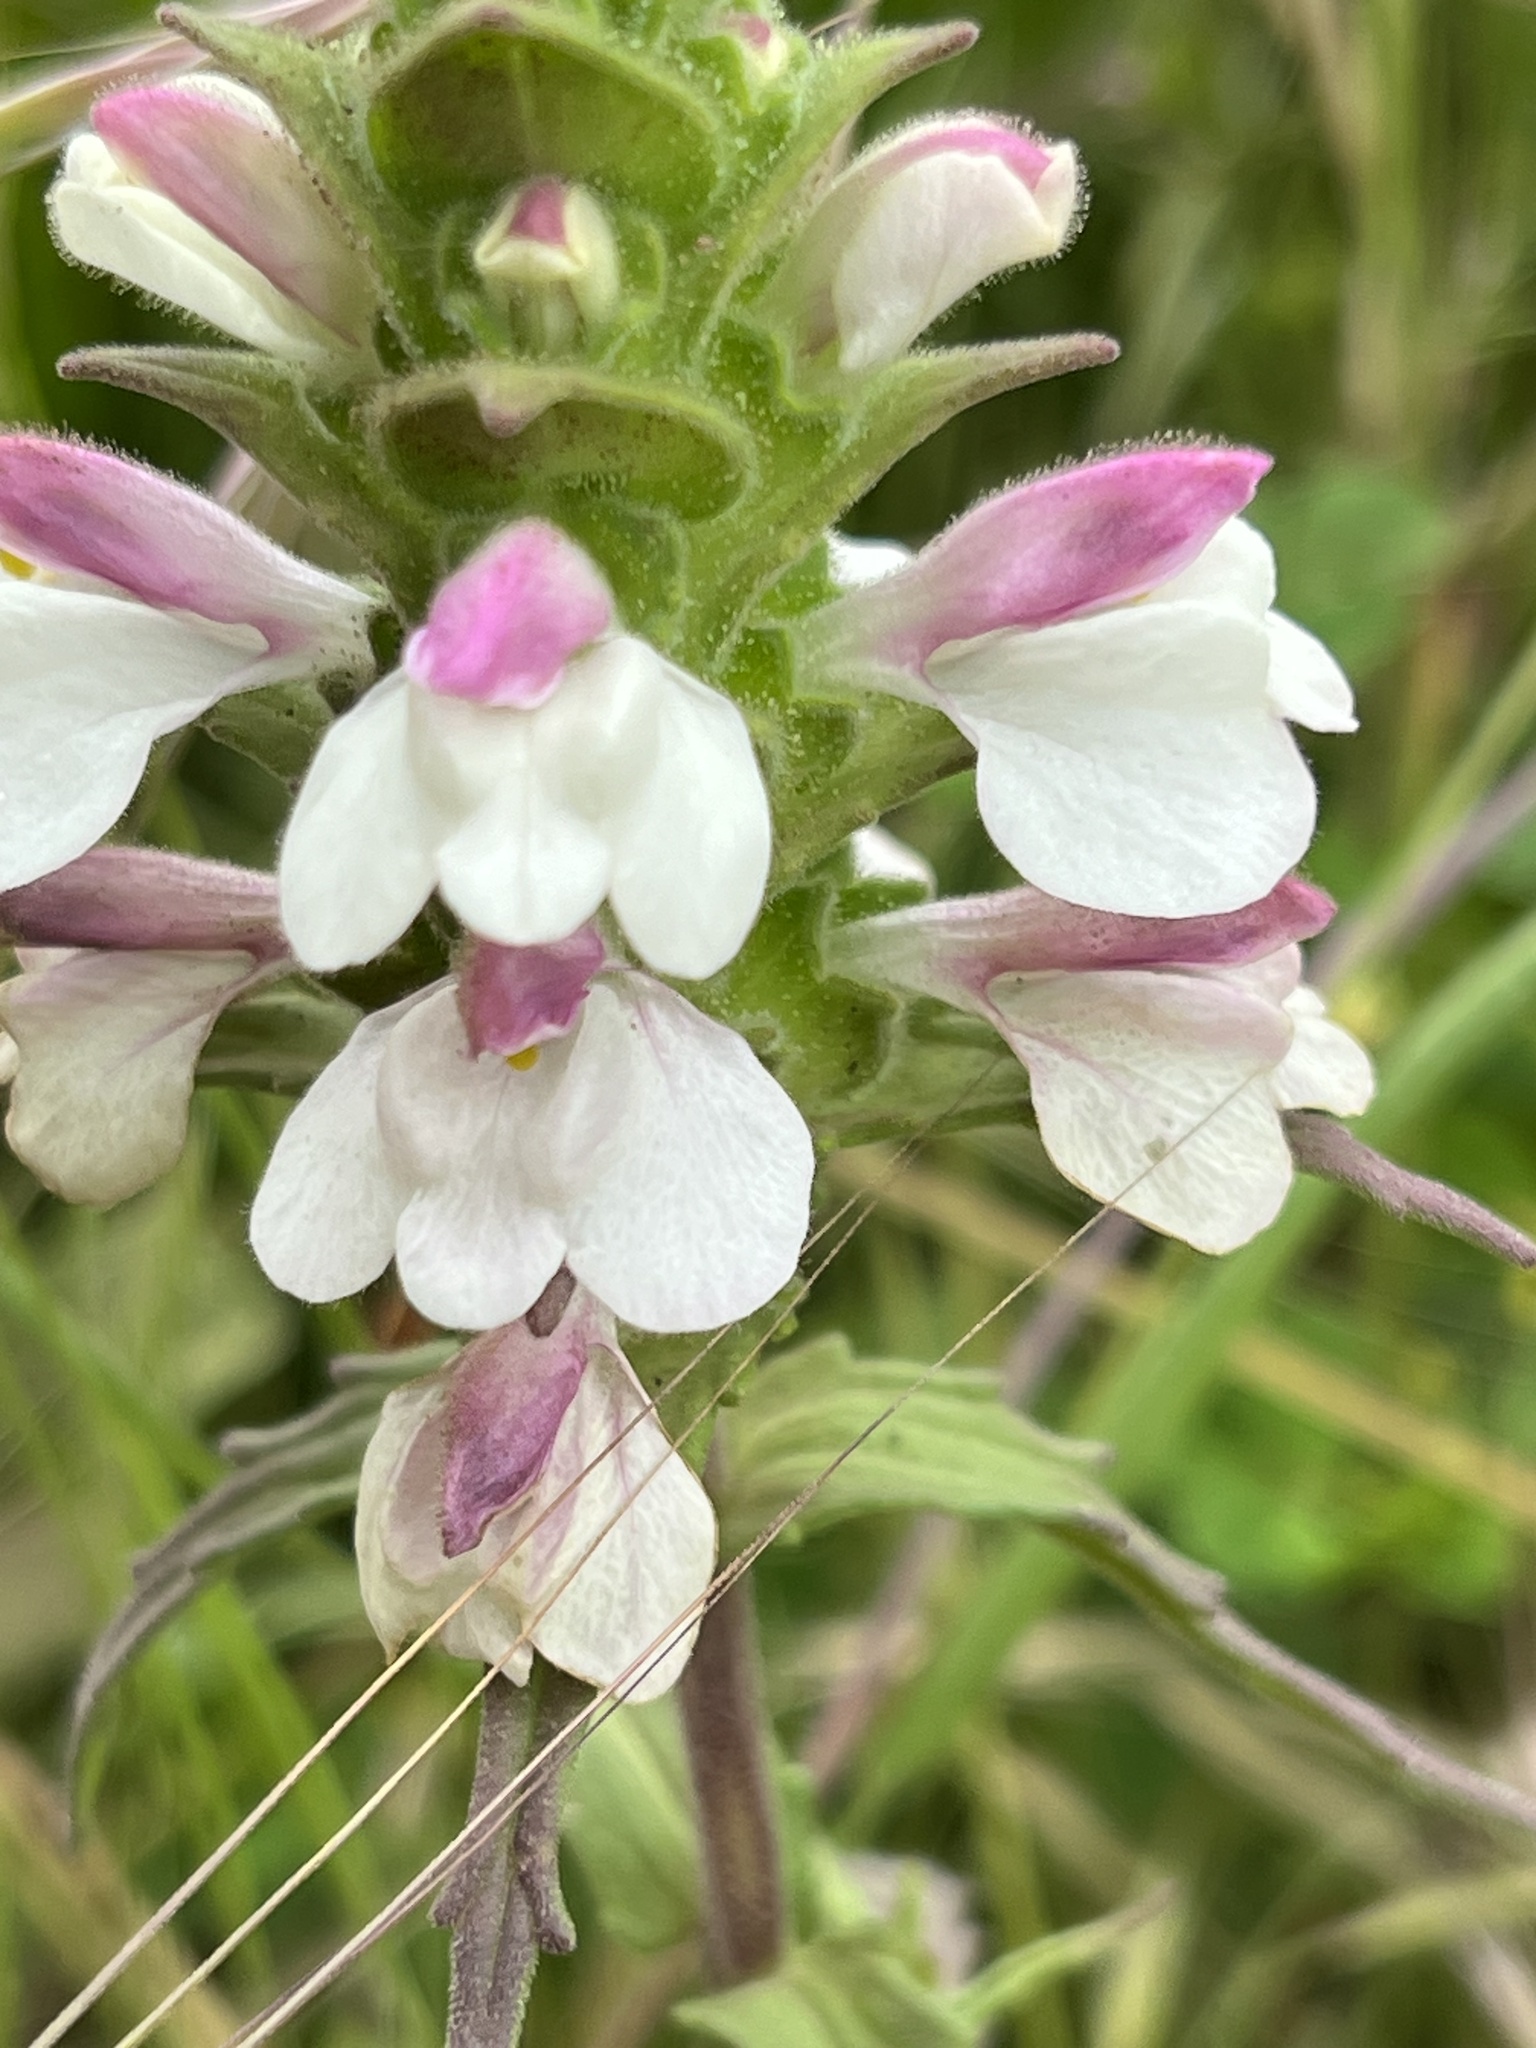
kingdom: Plantae
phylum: Tracheophyta
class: Magnoliopsida
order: Lamiales
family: Orobanchaceae
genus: Bellardia
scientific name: Bellardia trixago
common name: Mediterranean lineseed
